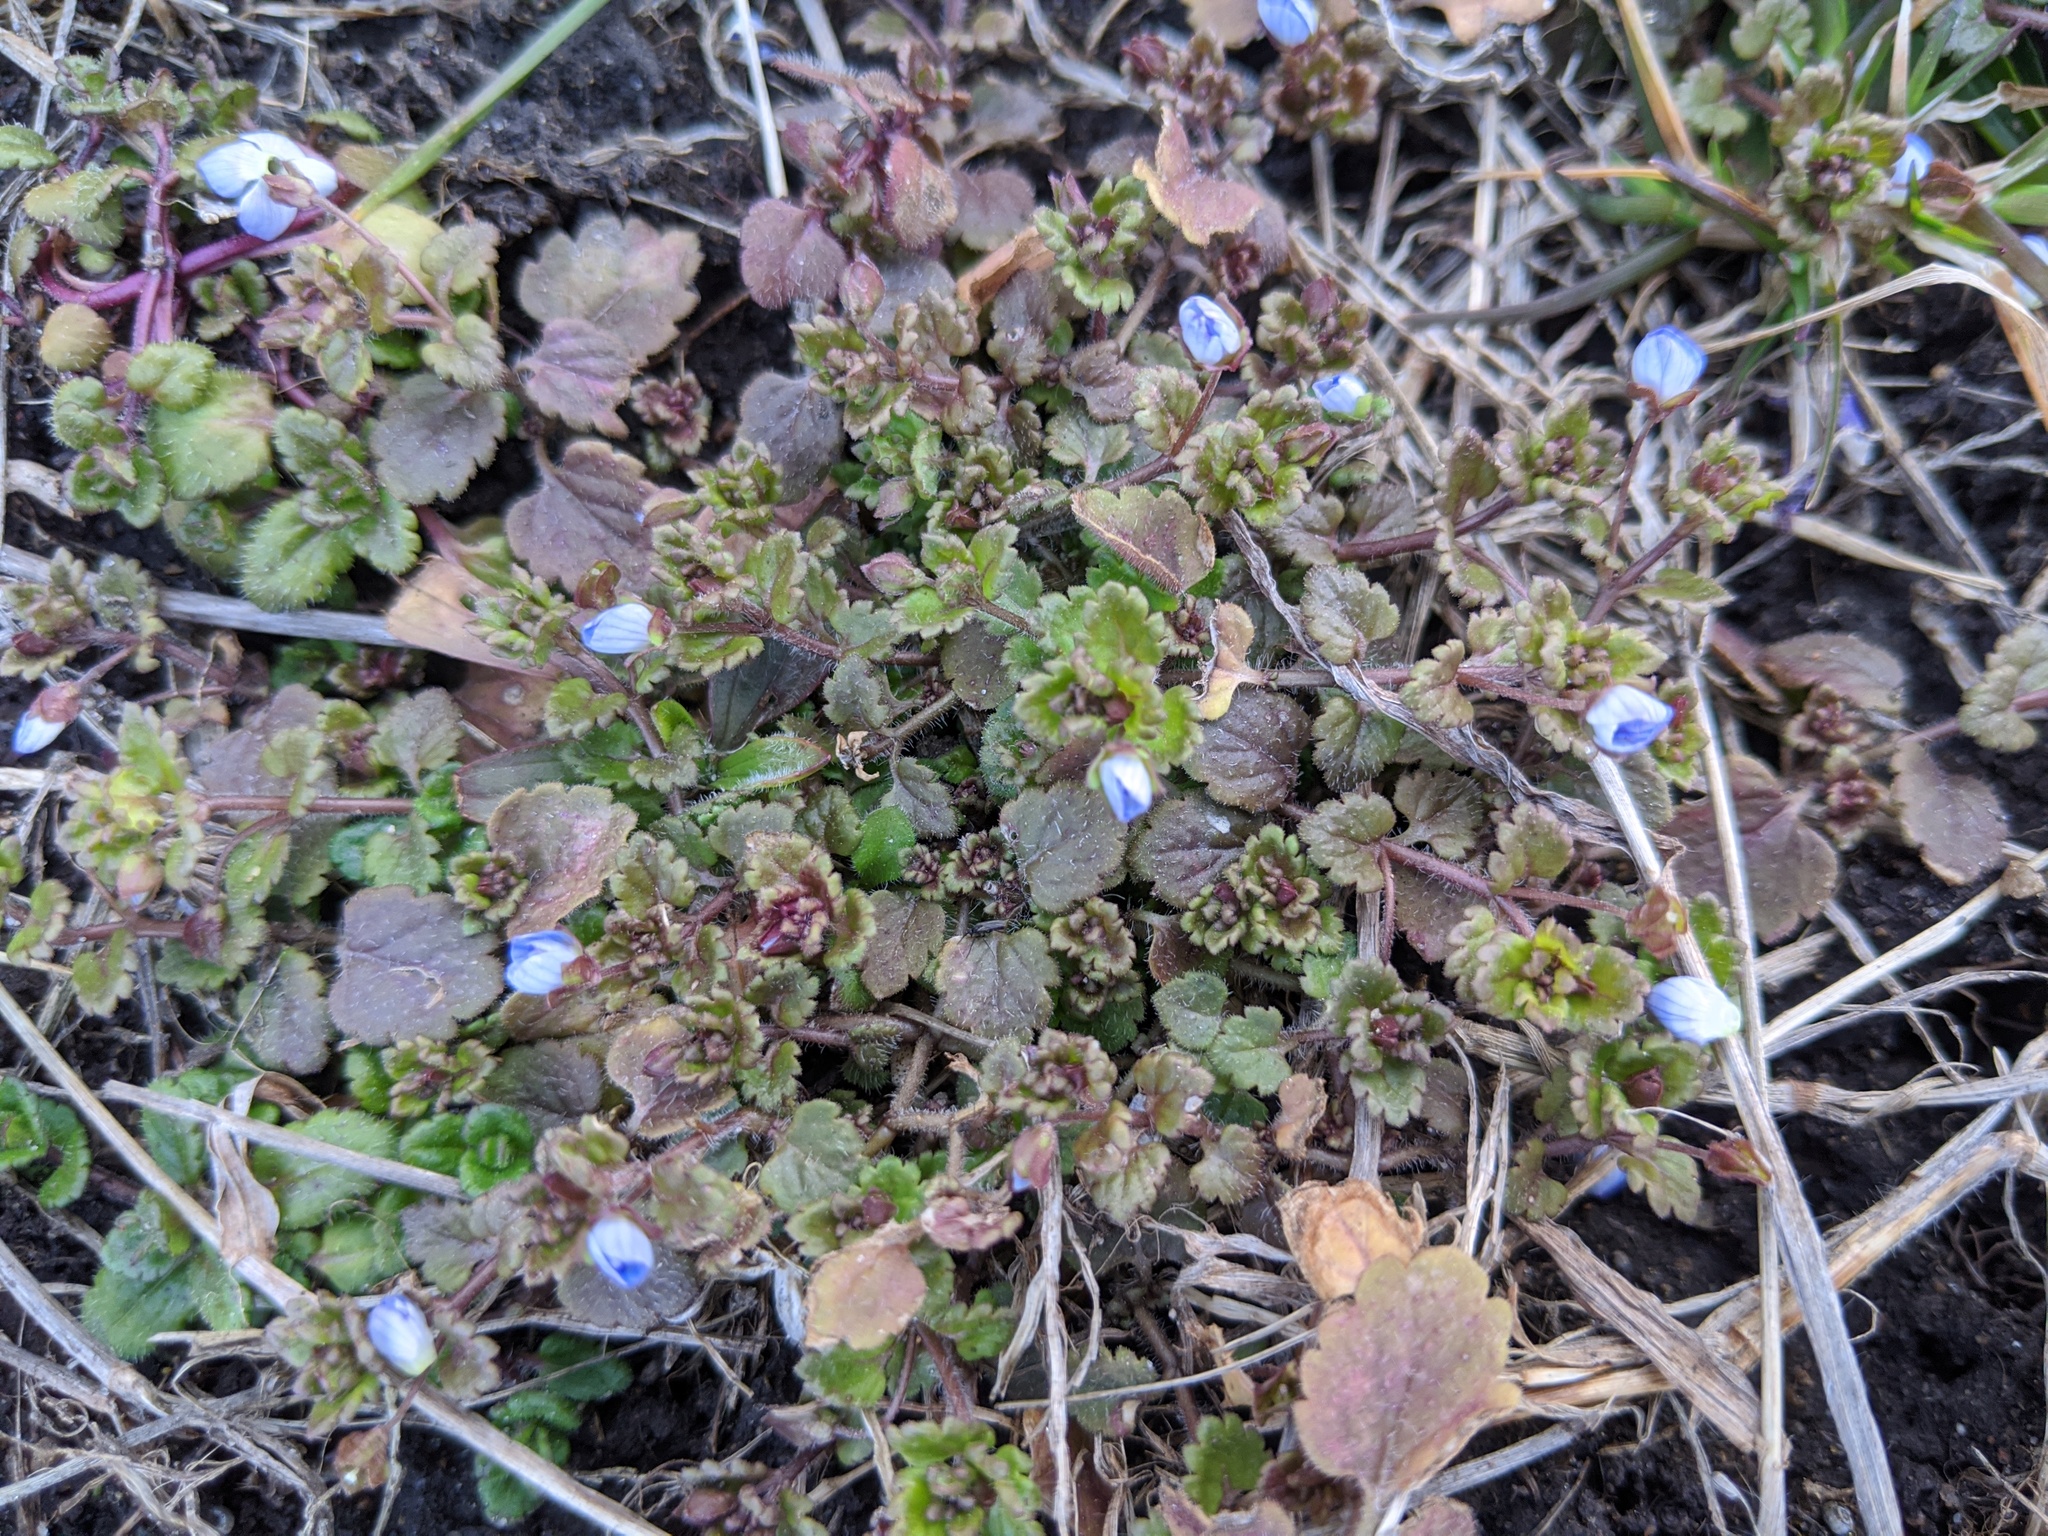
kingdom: Plantae
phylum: Tracheophyta
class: Magnoliopsida
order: Lamiales
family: Plantaginaceae
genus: Veronica
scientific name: Veronica polita
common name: Grey field-speedwell
